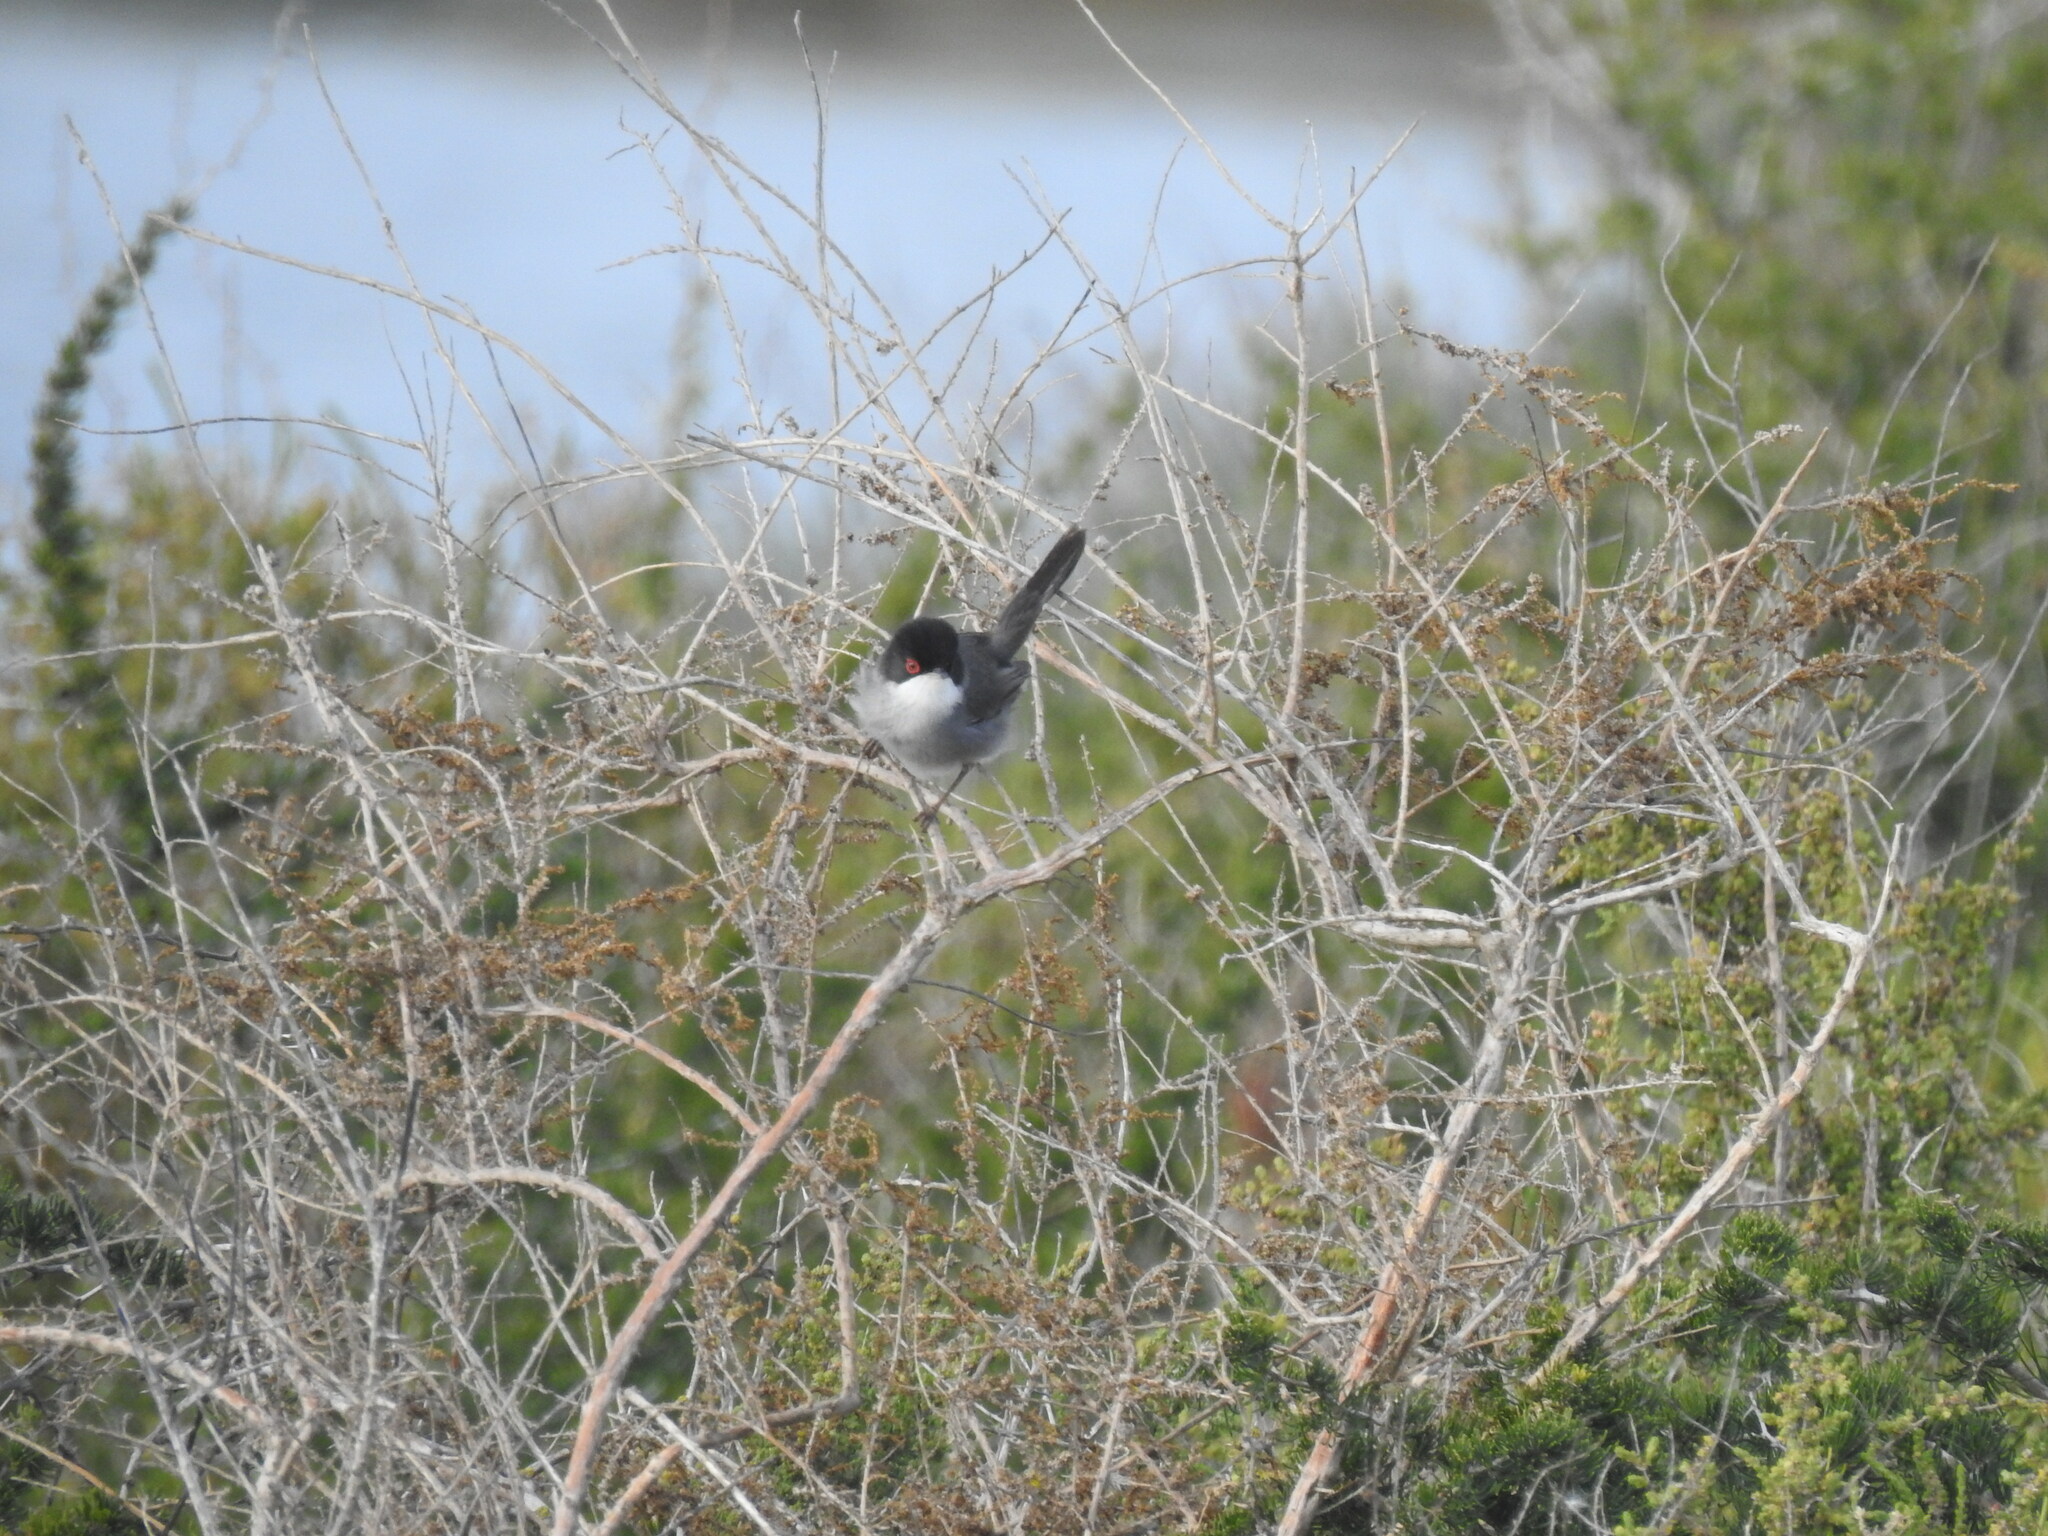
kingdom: Animalia
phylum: Chordata
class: Aves
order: Passeriformes
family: Sylviidae
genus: Curruca
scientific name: Curruca melanocephala
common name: Sardinian warbler
